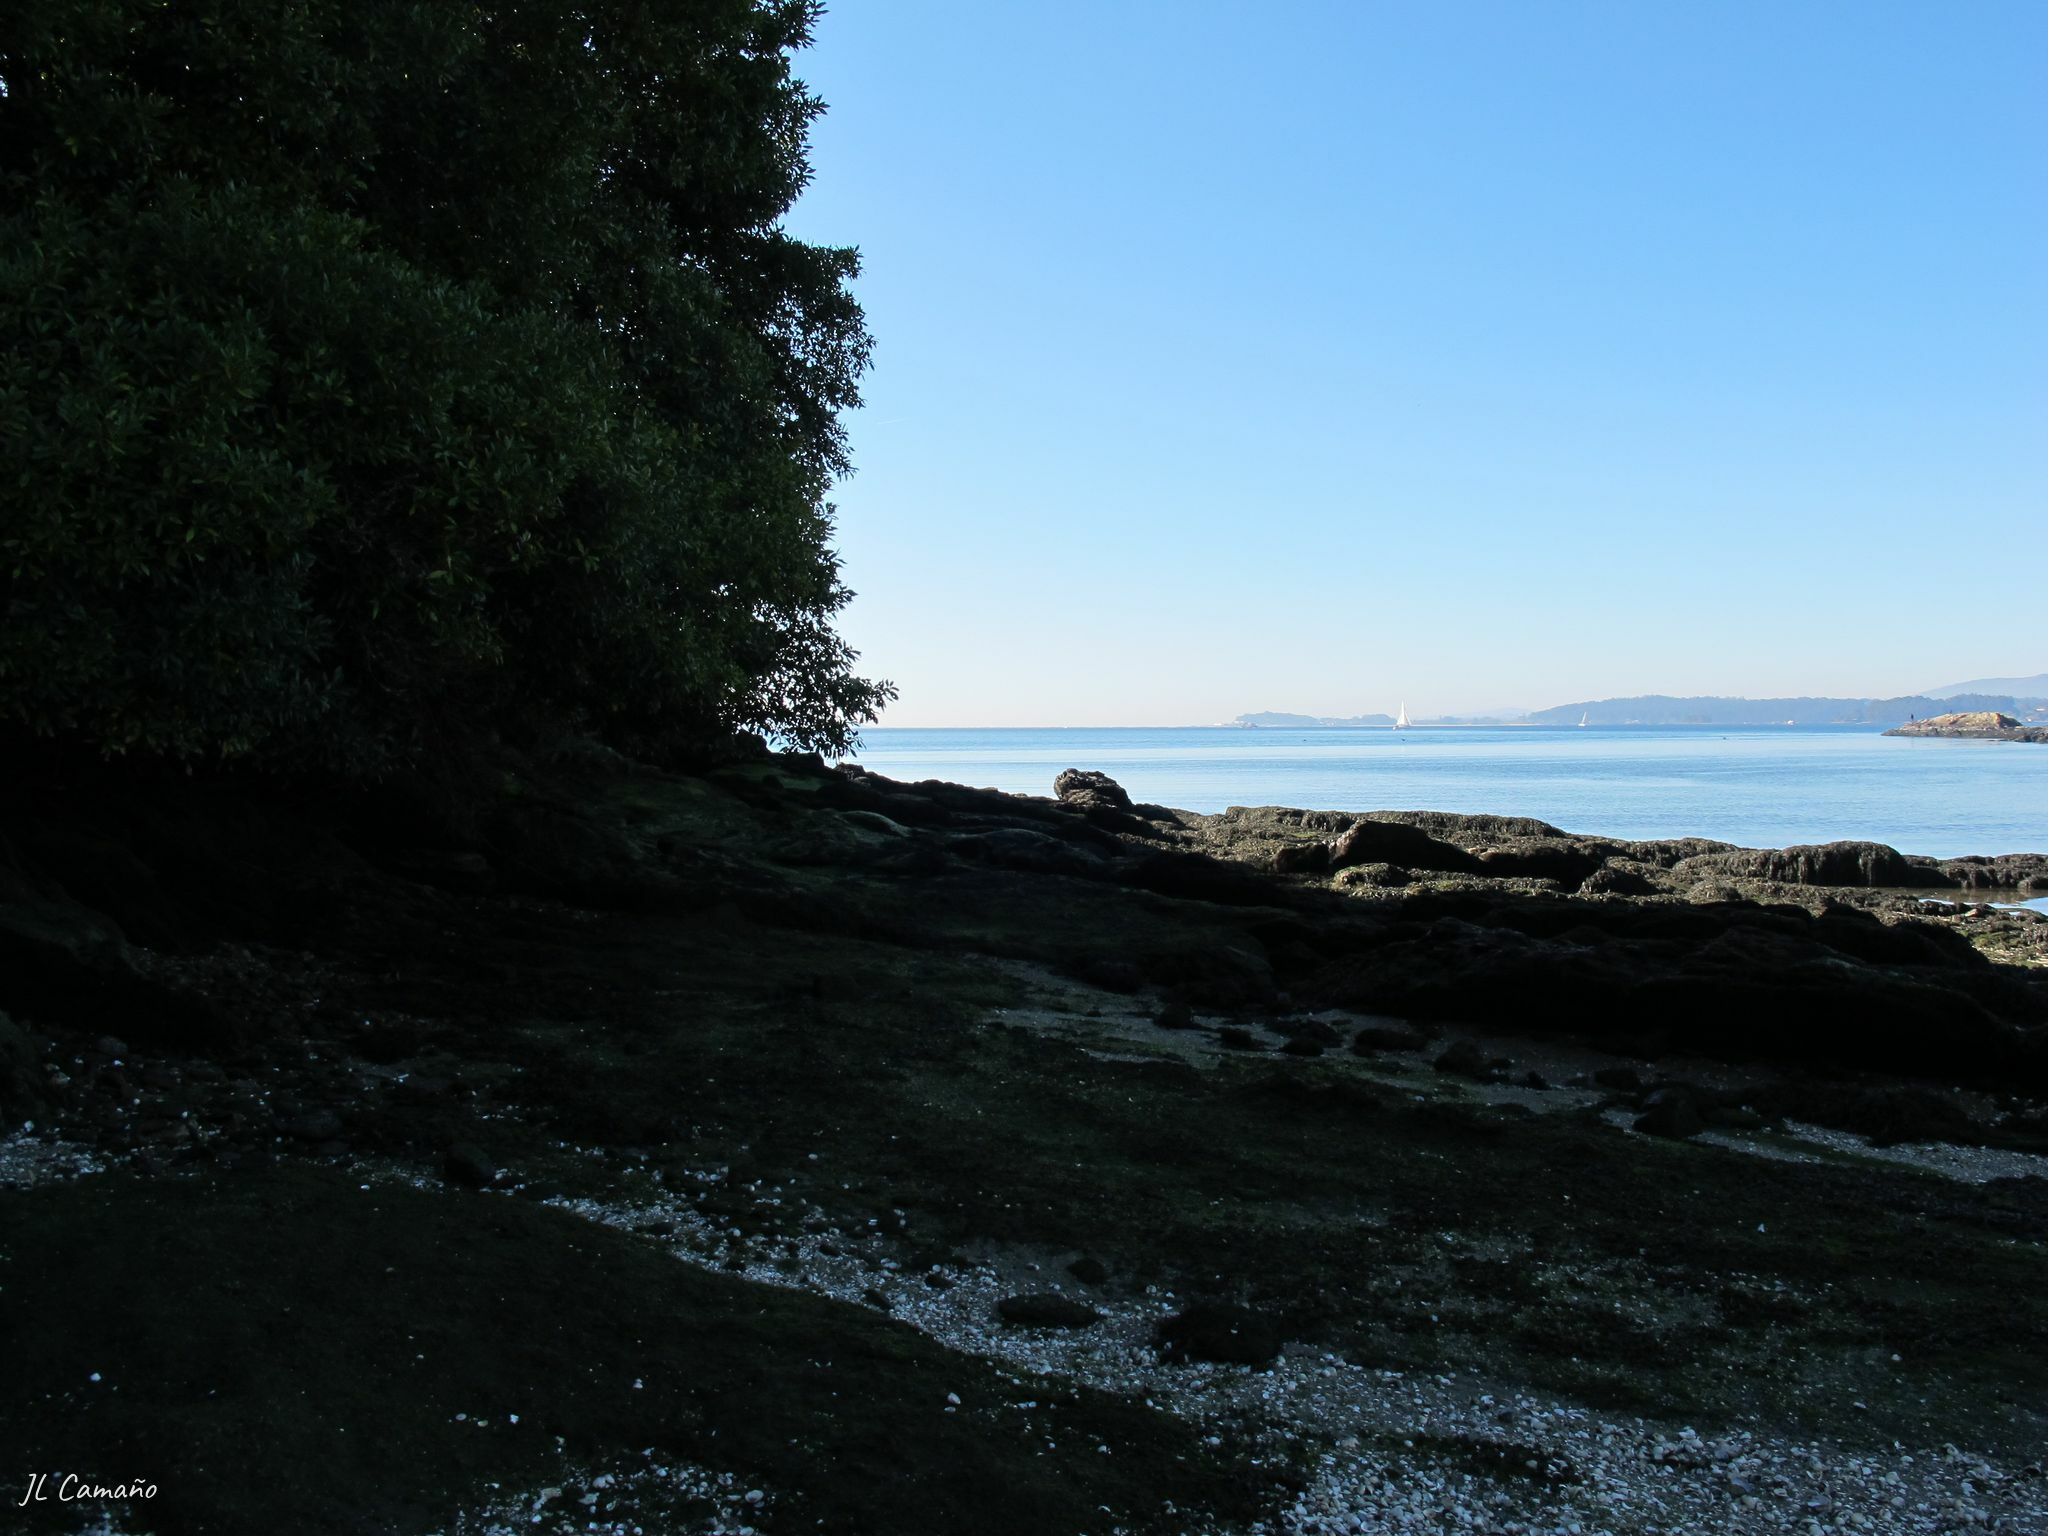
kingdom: Plantae
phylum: Bryophyta
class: Bryopsida
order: Bryales
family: Mniaceae
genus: Epipterygium
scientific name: Epipterygium tozeri
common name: Tozer's thread-moss
